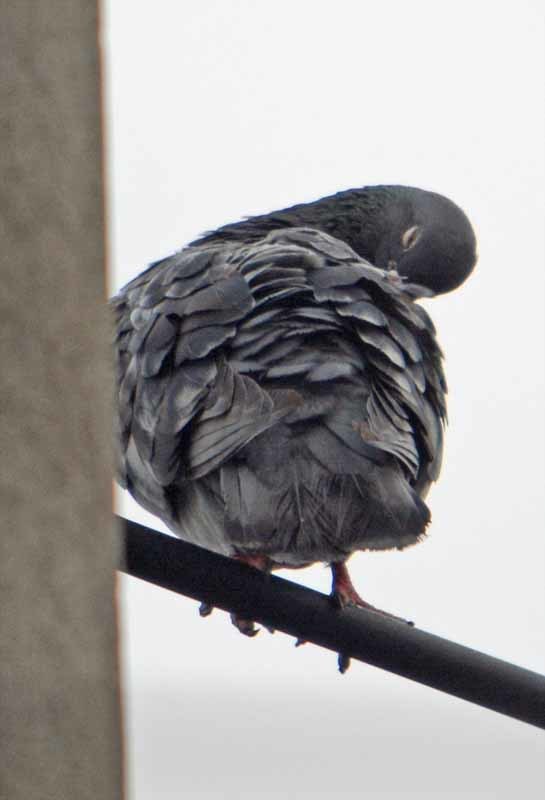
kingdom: Animalia
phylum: Chordata
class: Aves
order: Columbiformes
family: Columbidae
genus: Columba
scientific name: Columba livia
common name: Rock pigeon
